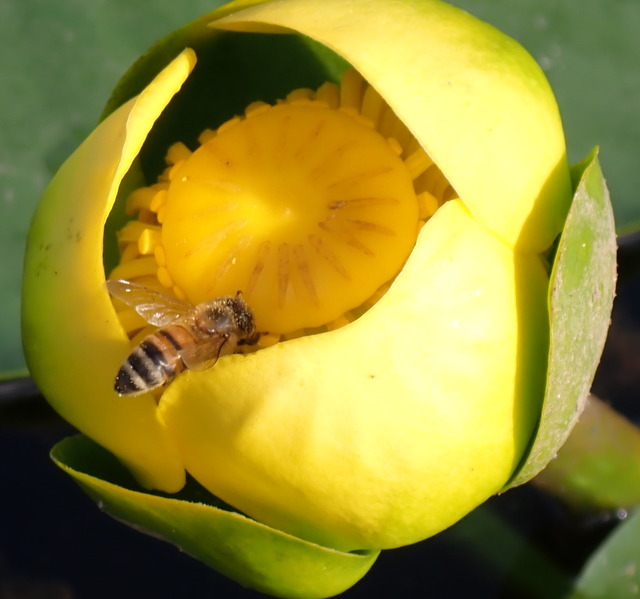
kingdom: Animalia
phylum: Arthropoda
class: Insecta
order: Hymenoptera
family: Apidae
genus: Apis
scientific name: Apis mellifera
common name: Honey bee
